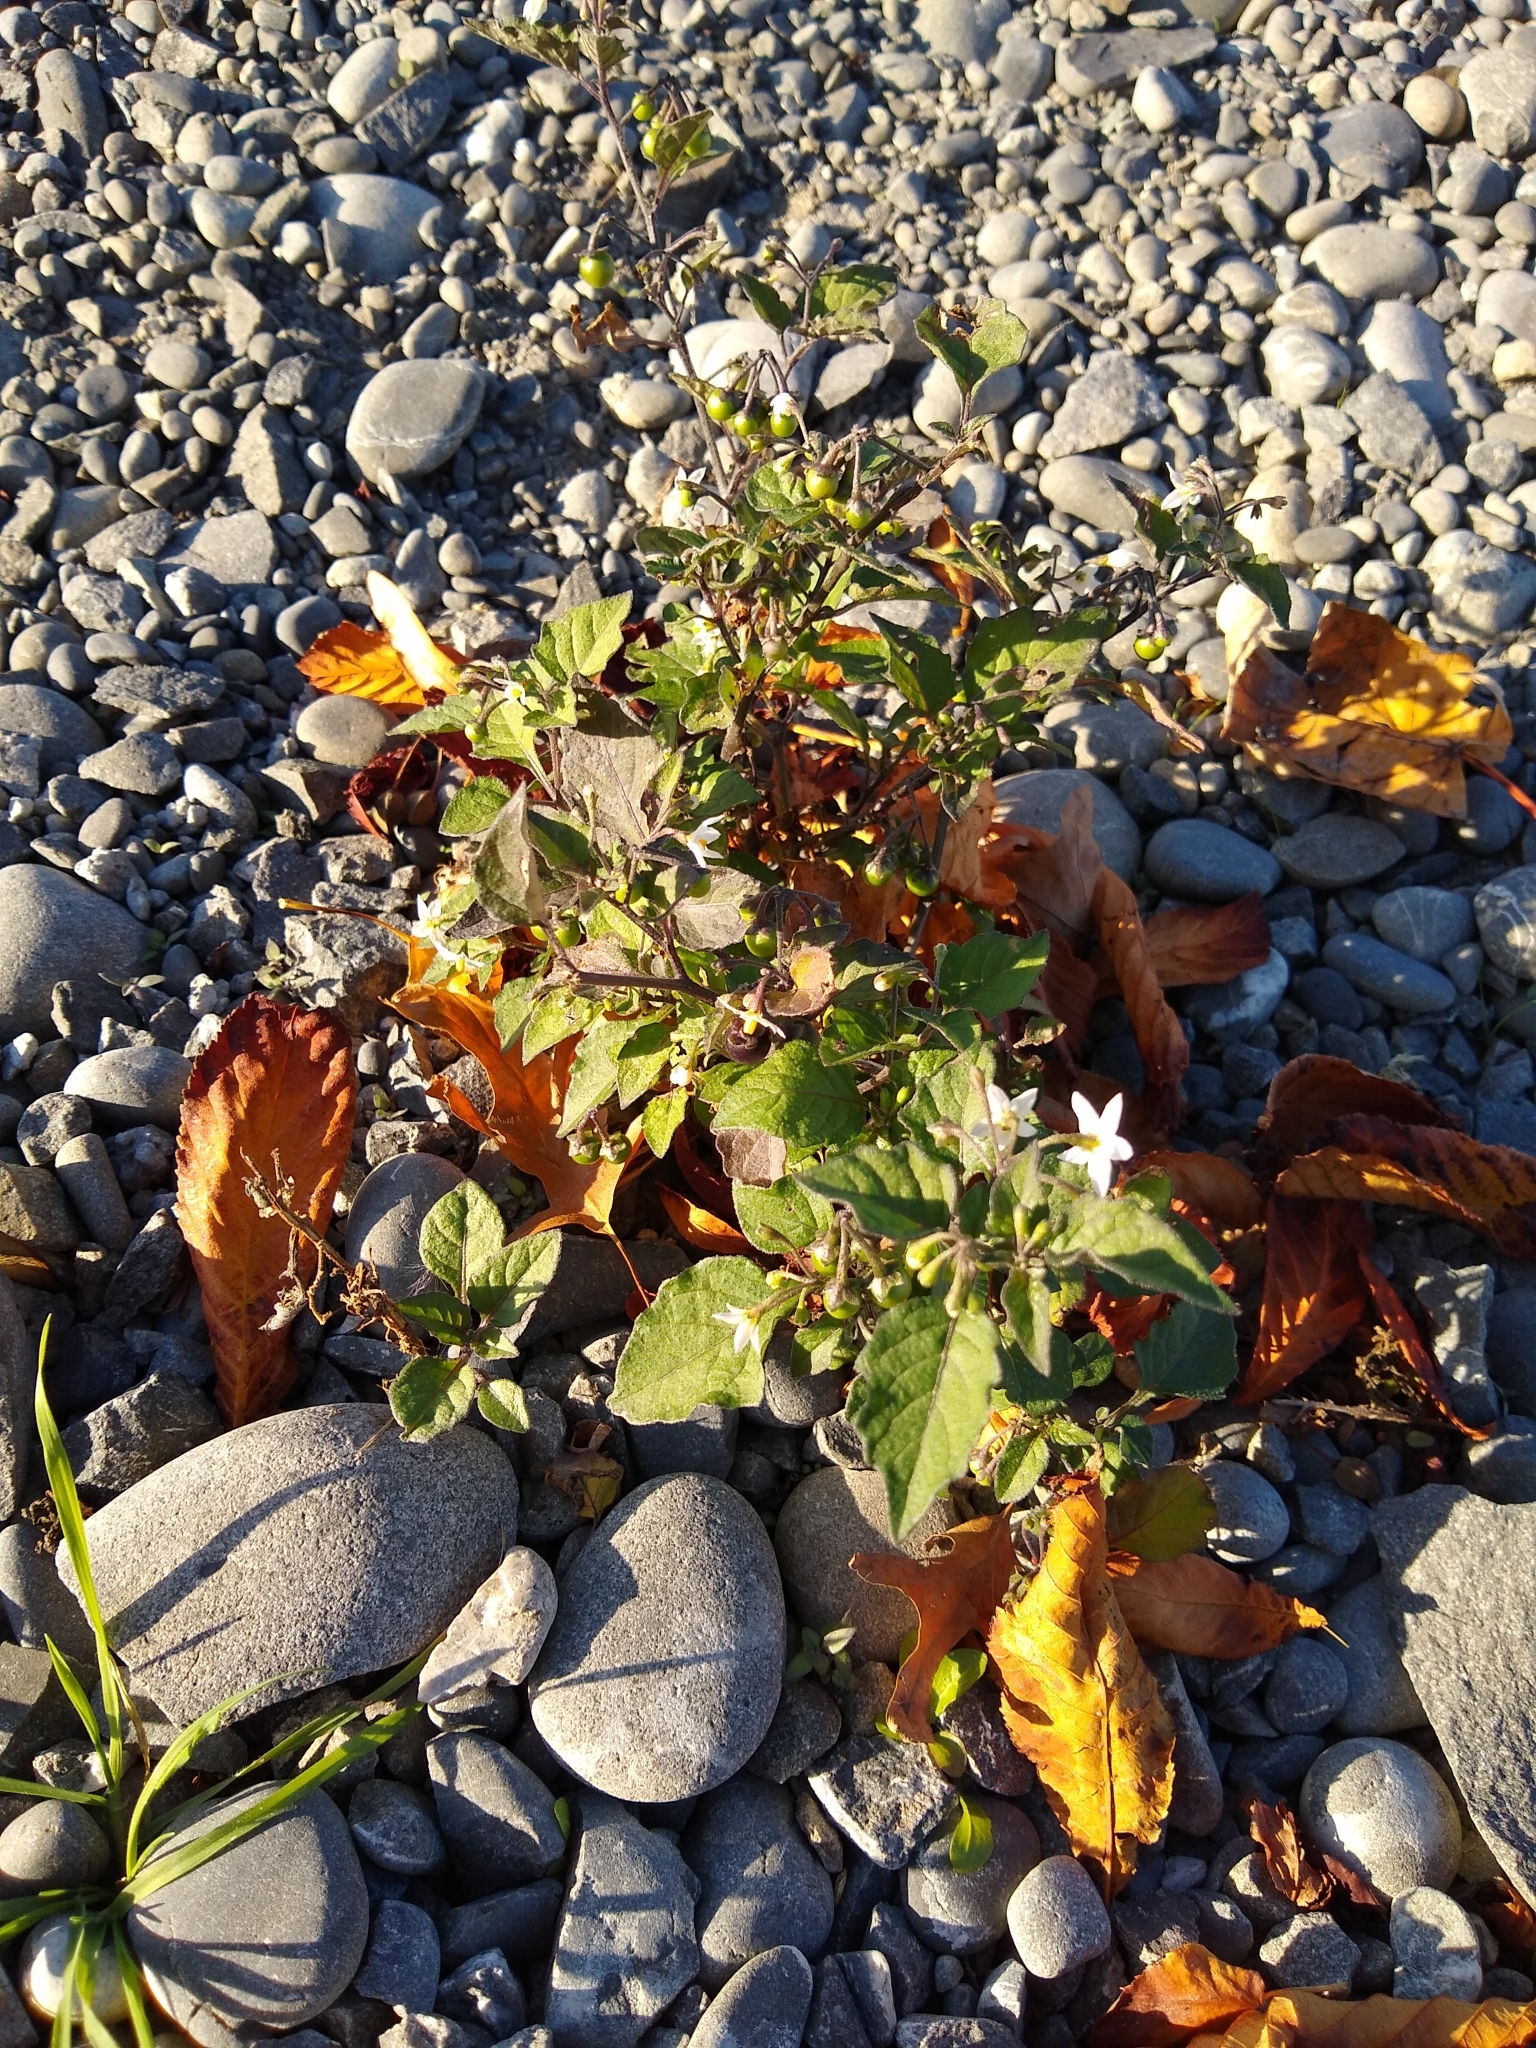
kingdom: Plantae
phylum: Tracheophyta
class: Magnoliopsida
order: Solanales
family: Solanaceae
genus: Solanum
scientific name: Solanum nigrum
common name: Black nightshade
